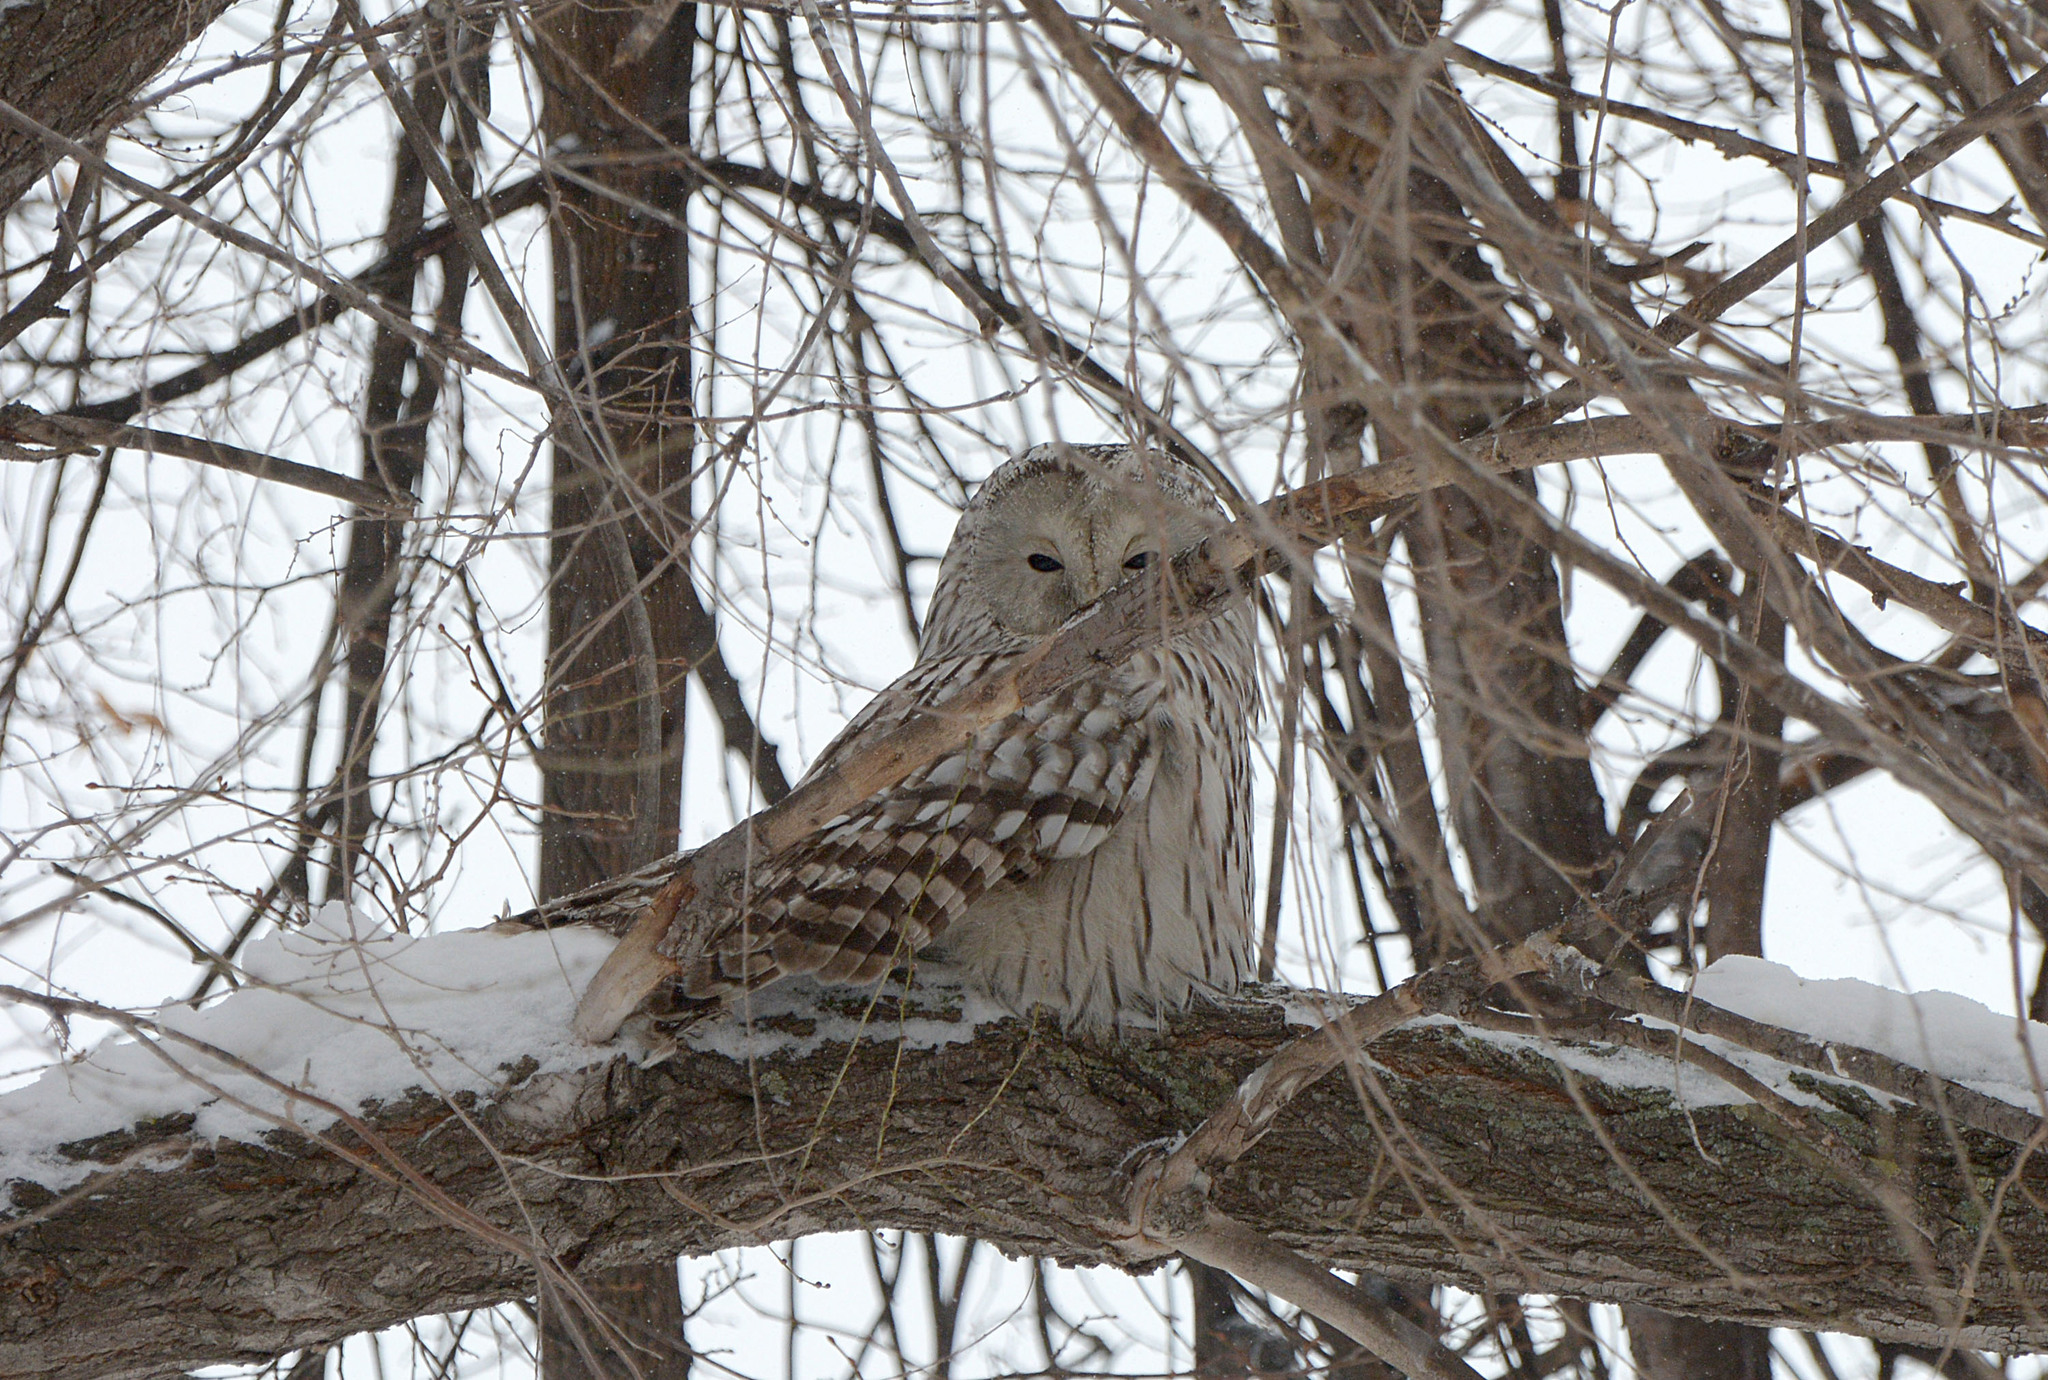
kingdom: Animalia
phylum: Chordata
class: Aves
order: Strigiformes
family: Strigidae
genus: Strix
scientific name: Strix uralensis
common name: Ural owl
